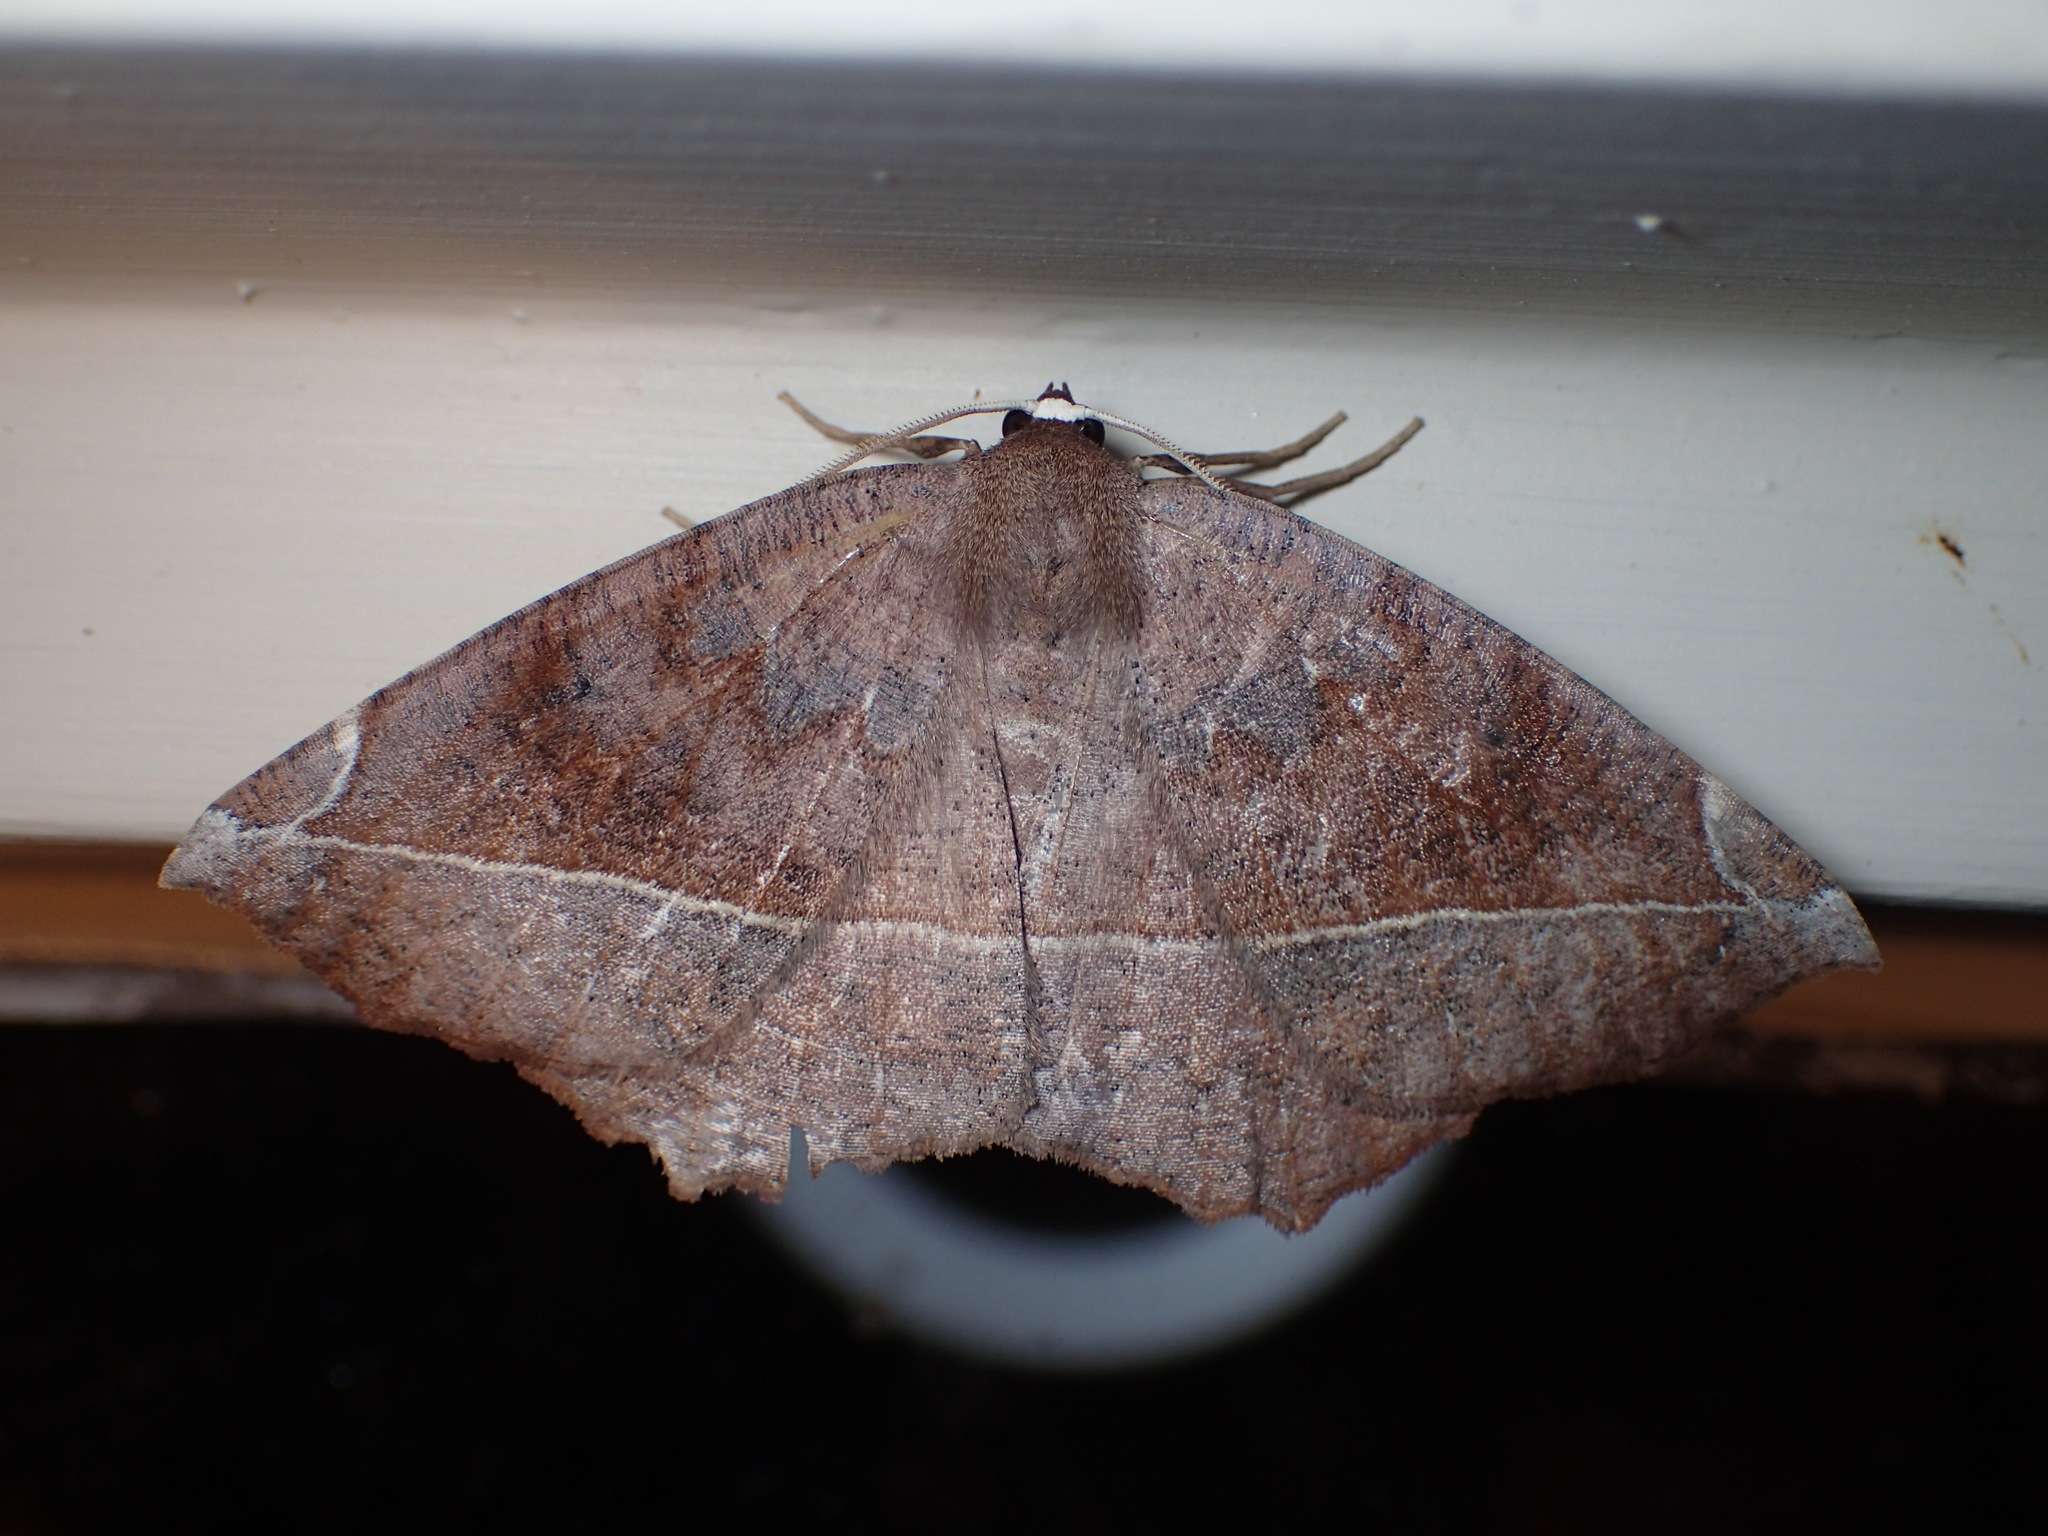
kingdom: Animalia
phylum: Arthropoda
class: Insecta
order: Lepidoptera
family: Geometridae
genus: Eutrapela
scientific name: Eutrapela clemataria
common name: Curved-toothed geometer
